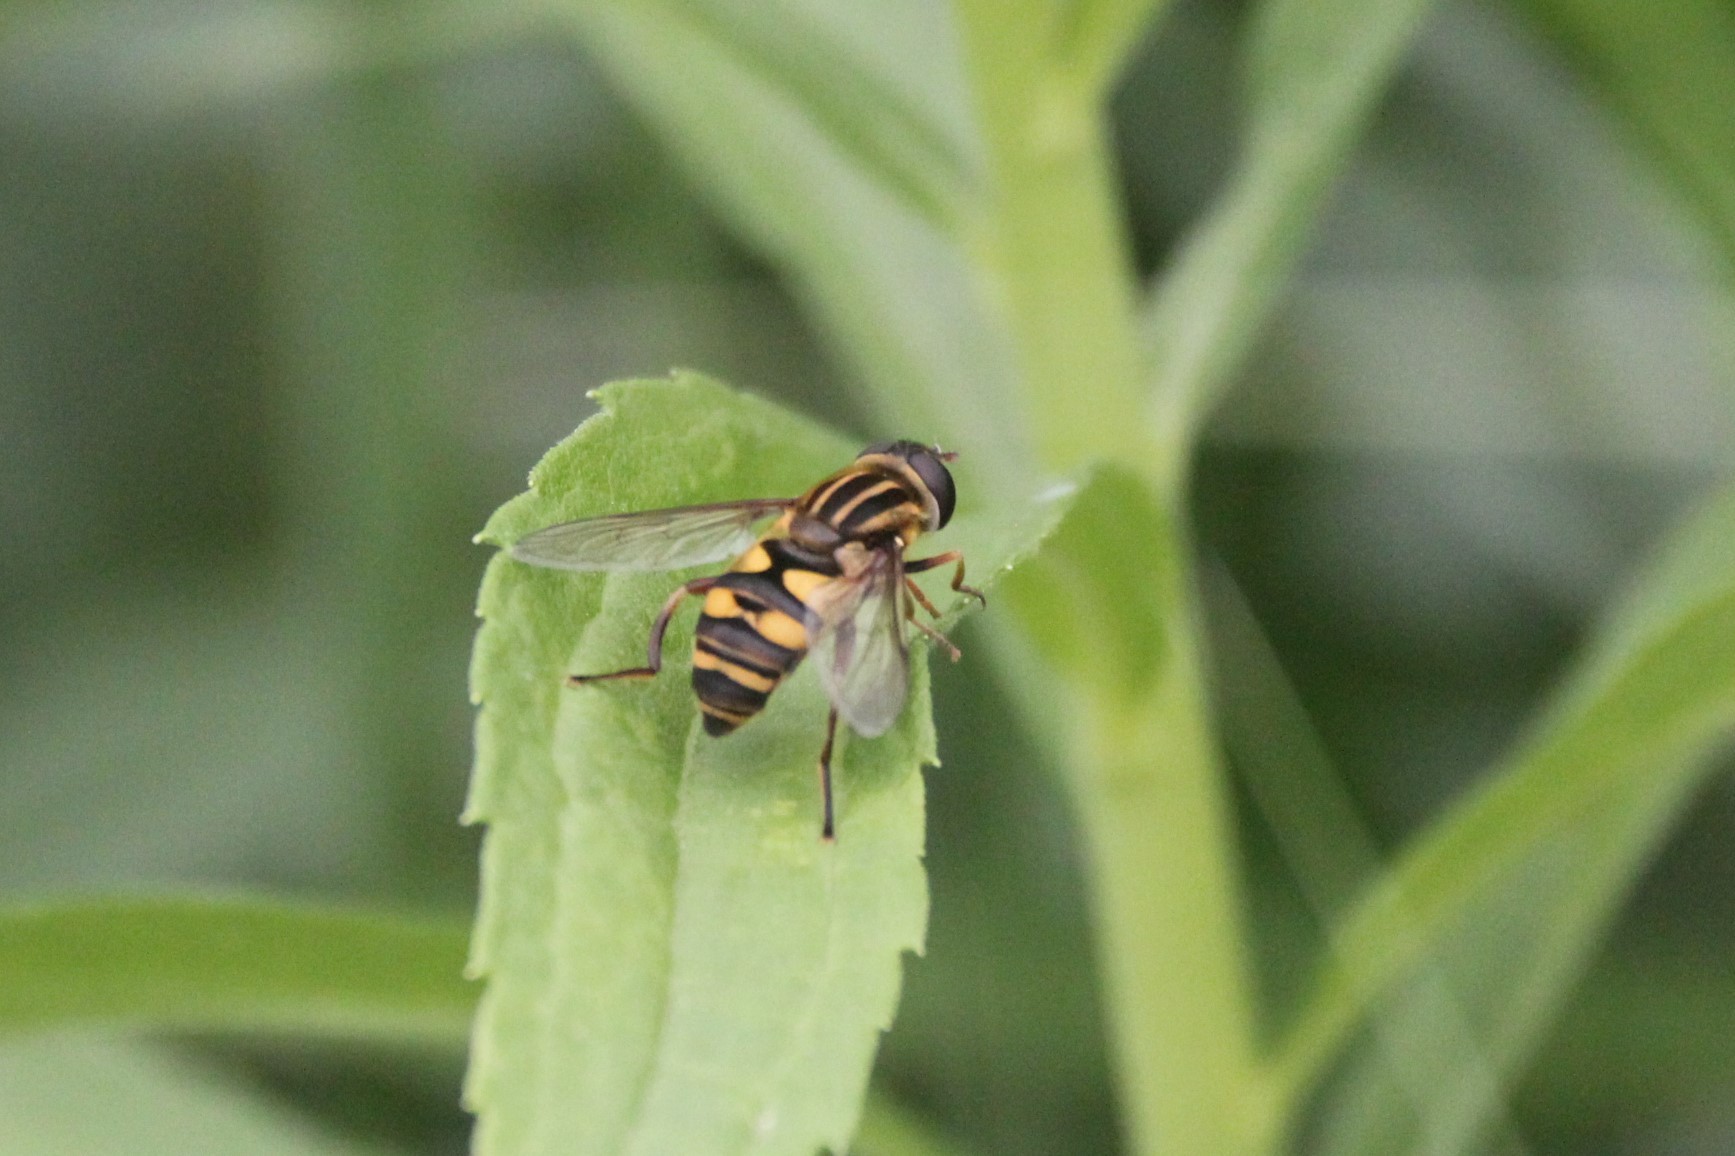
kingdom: Animalia
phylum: Arthropoda
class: Insecta
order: Diptera
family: Syrphidae
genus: Helophilus
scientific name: Helophilus fasciatus
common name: Narrow-headed marsh fly
